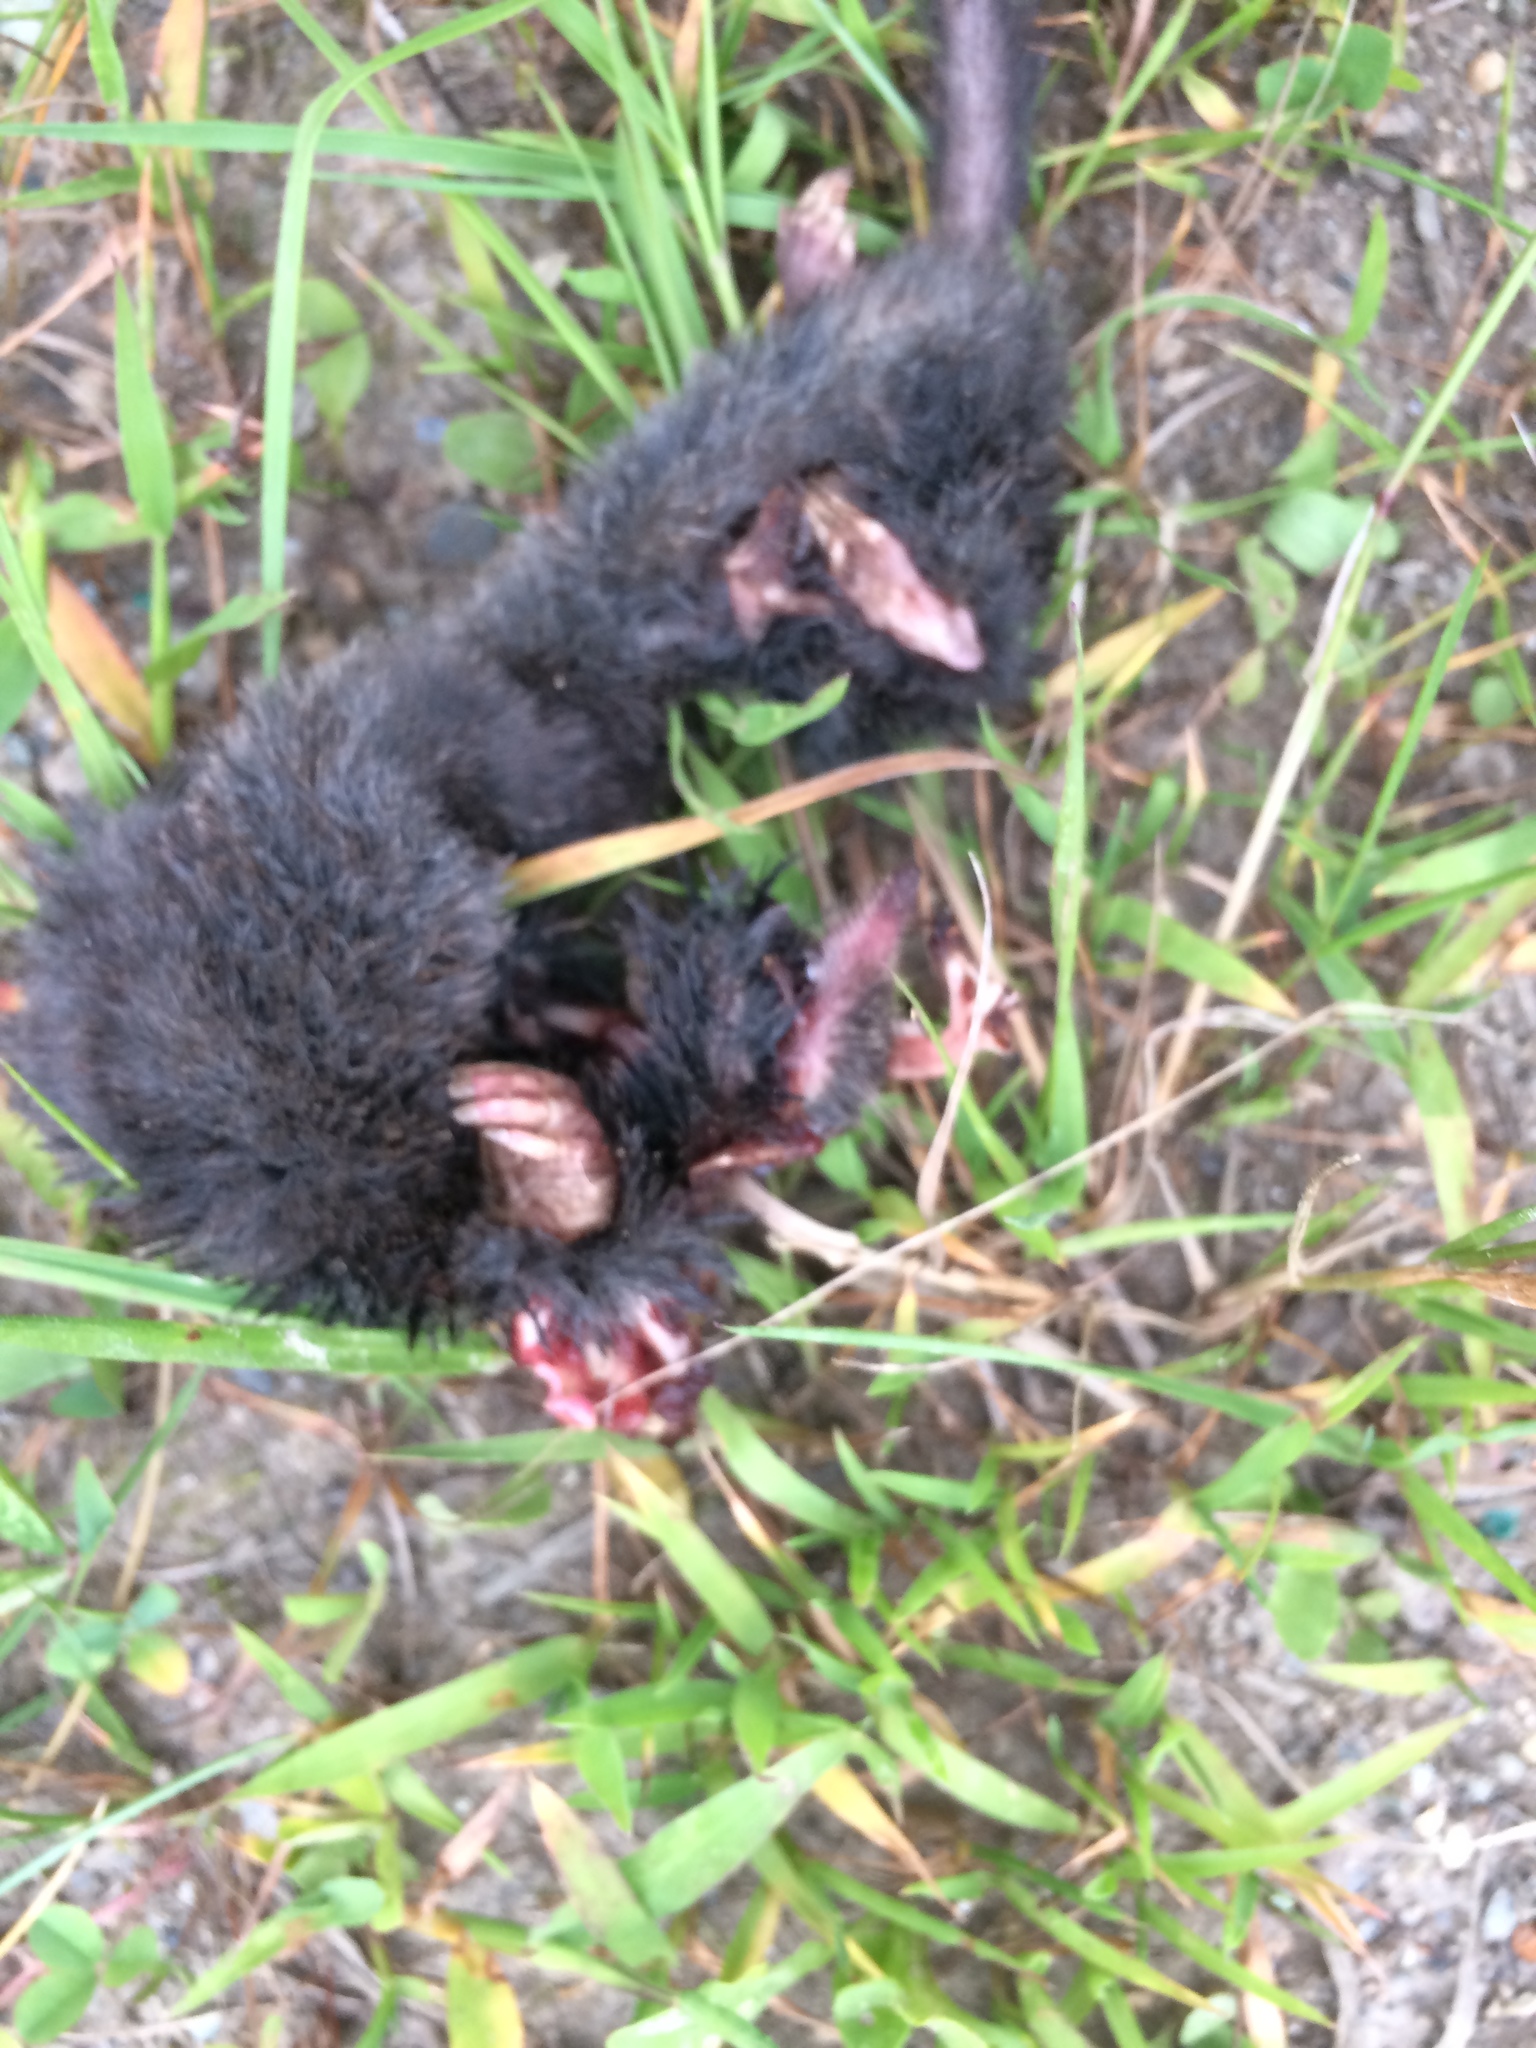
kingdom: Animalia
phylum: Chordata
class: Mammalia
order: Soricomorpha
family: Talpidae
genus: Parascalops
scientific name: Parascalops breweri
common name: Hairy-tailed mole
